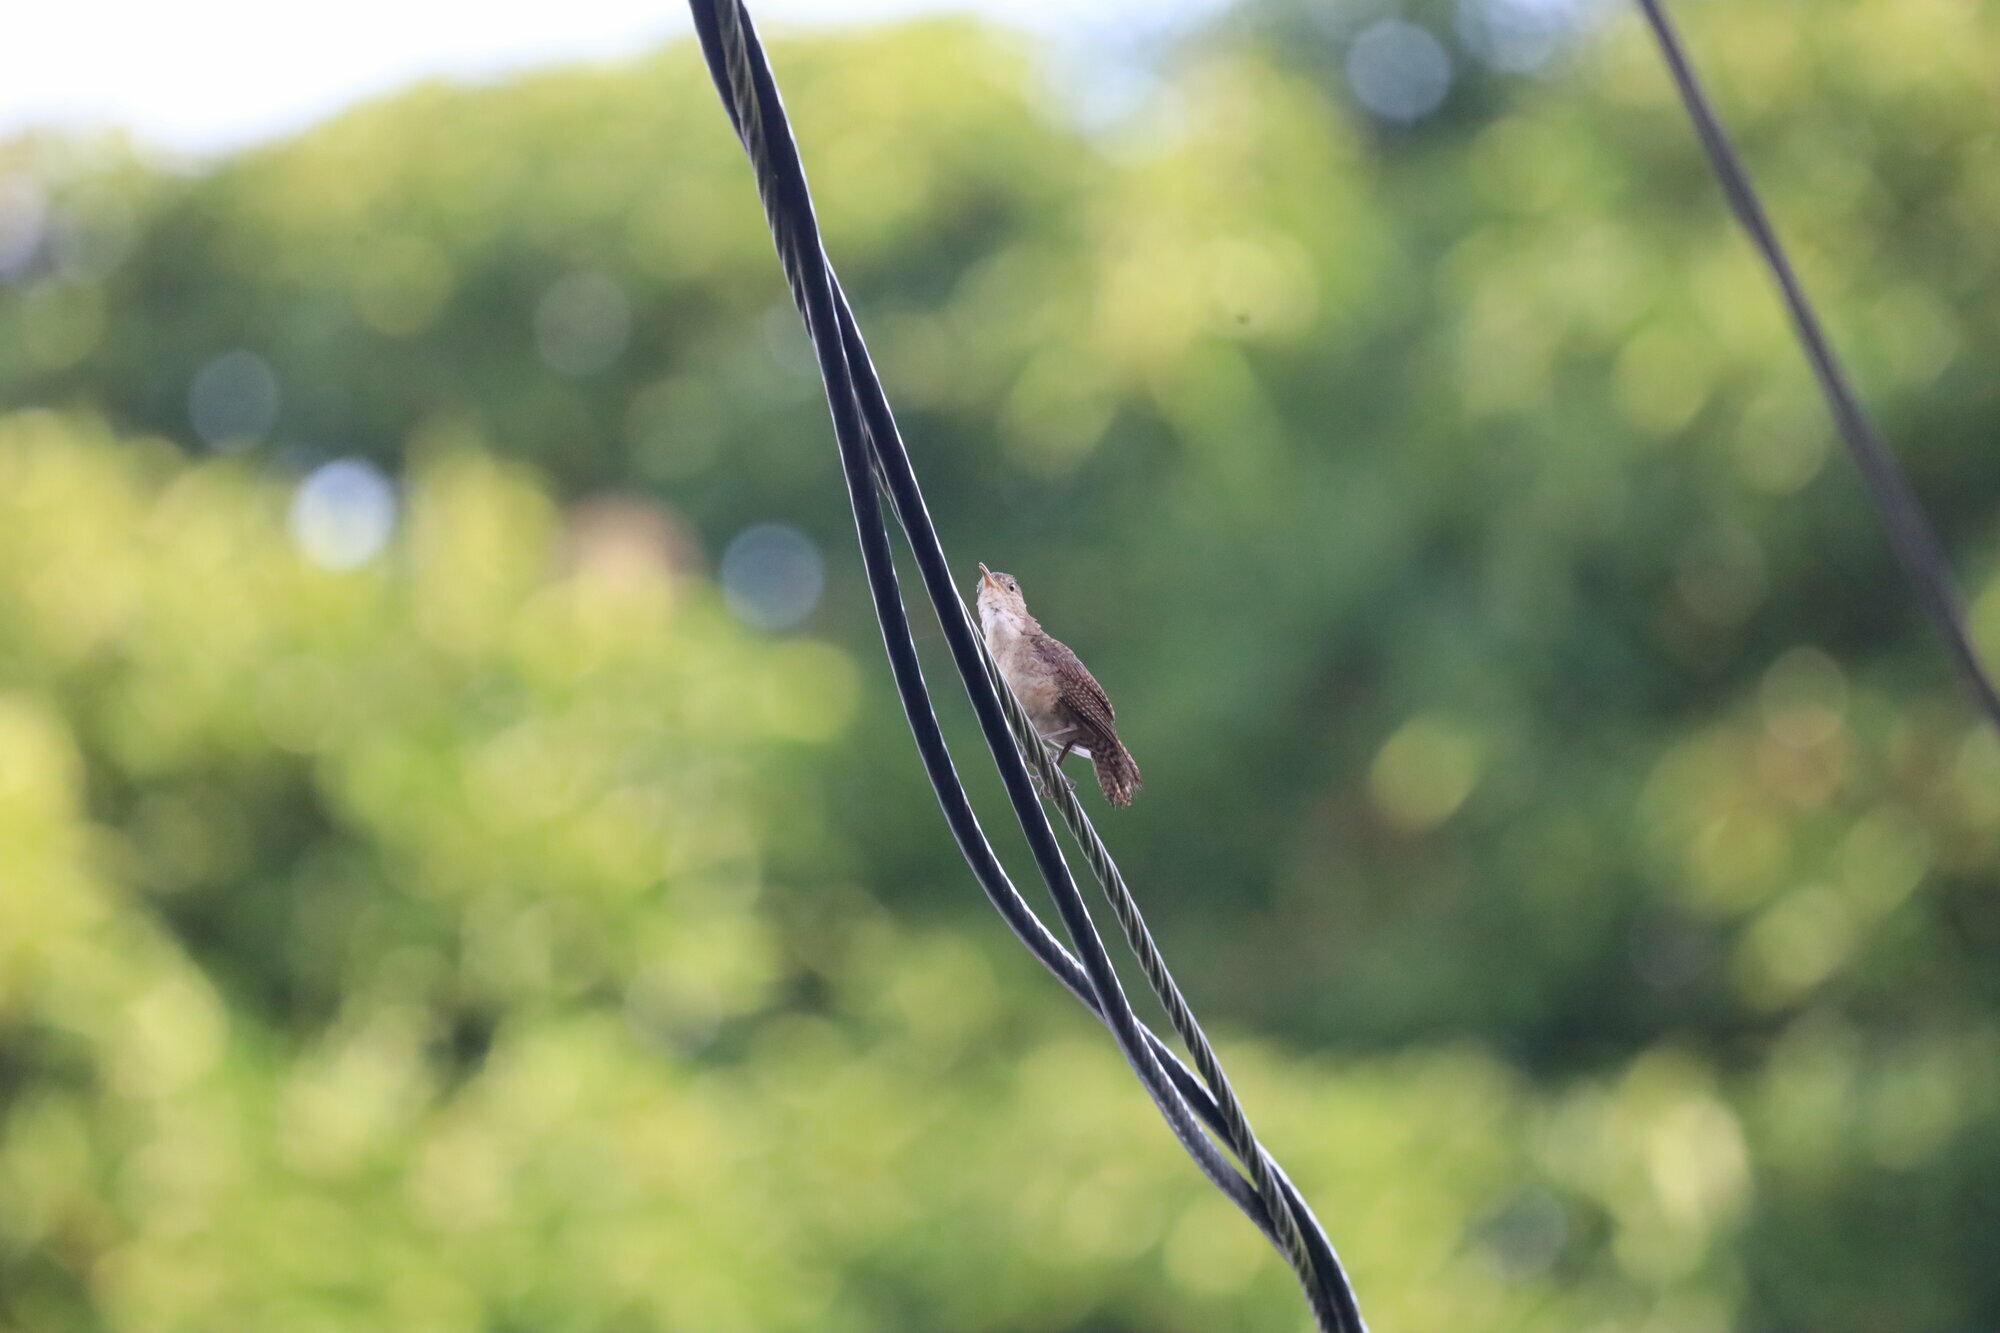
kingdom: Animalia
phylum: Chordata
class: Aves
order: Passeriformes
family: Troglodytidae
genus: Troglodytes
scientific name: Troglodytes aedon
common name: House wren
